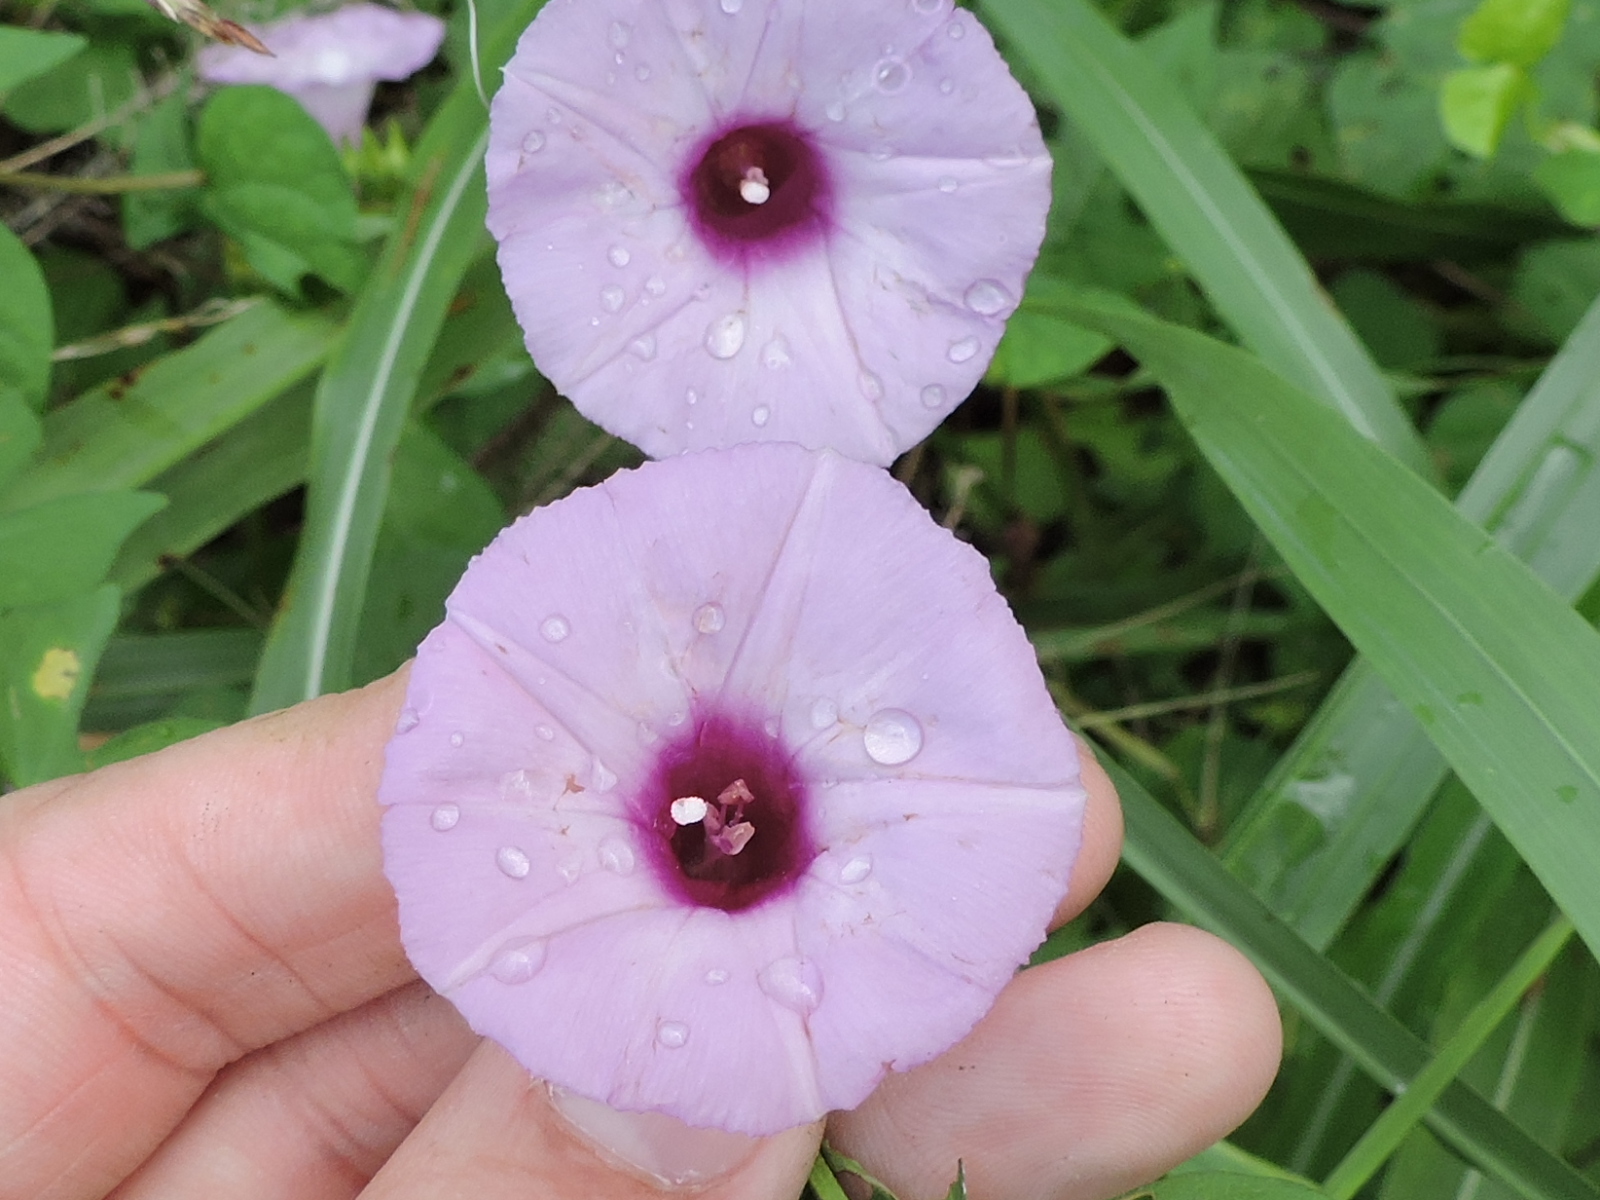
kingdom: Plantae
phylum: Tracheophyta
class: Magnoliopsida
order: Solanales
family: Convolvulaceae
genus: Ipomoea
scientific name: Ipomoea cordatotriloba
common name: Cotton morning glory
